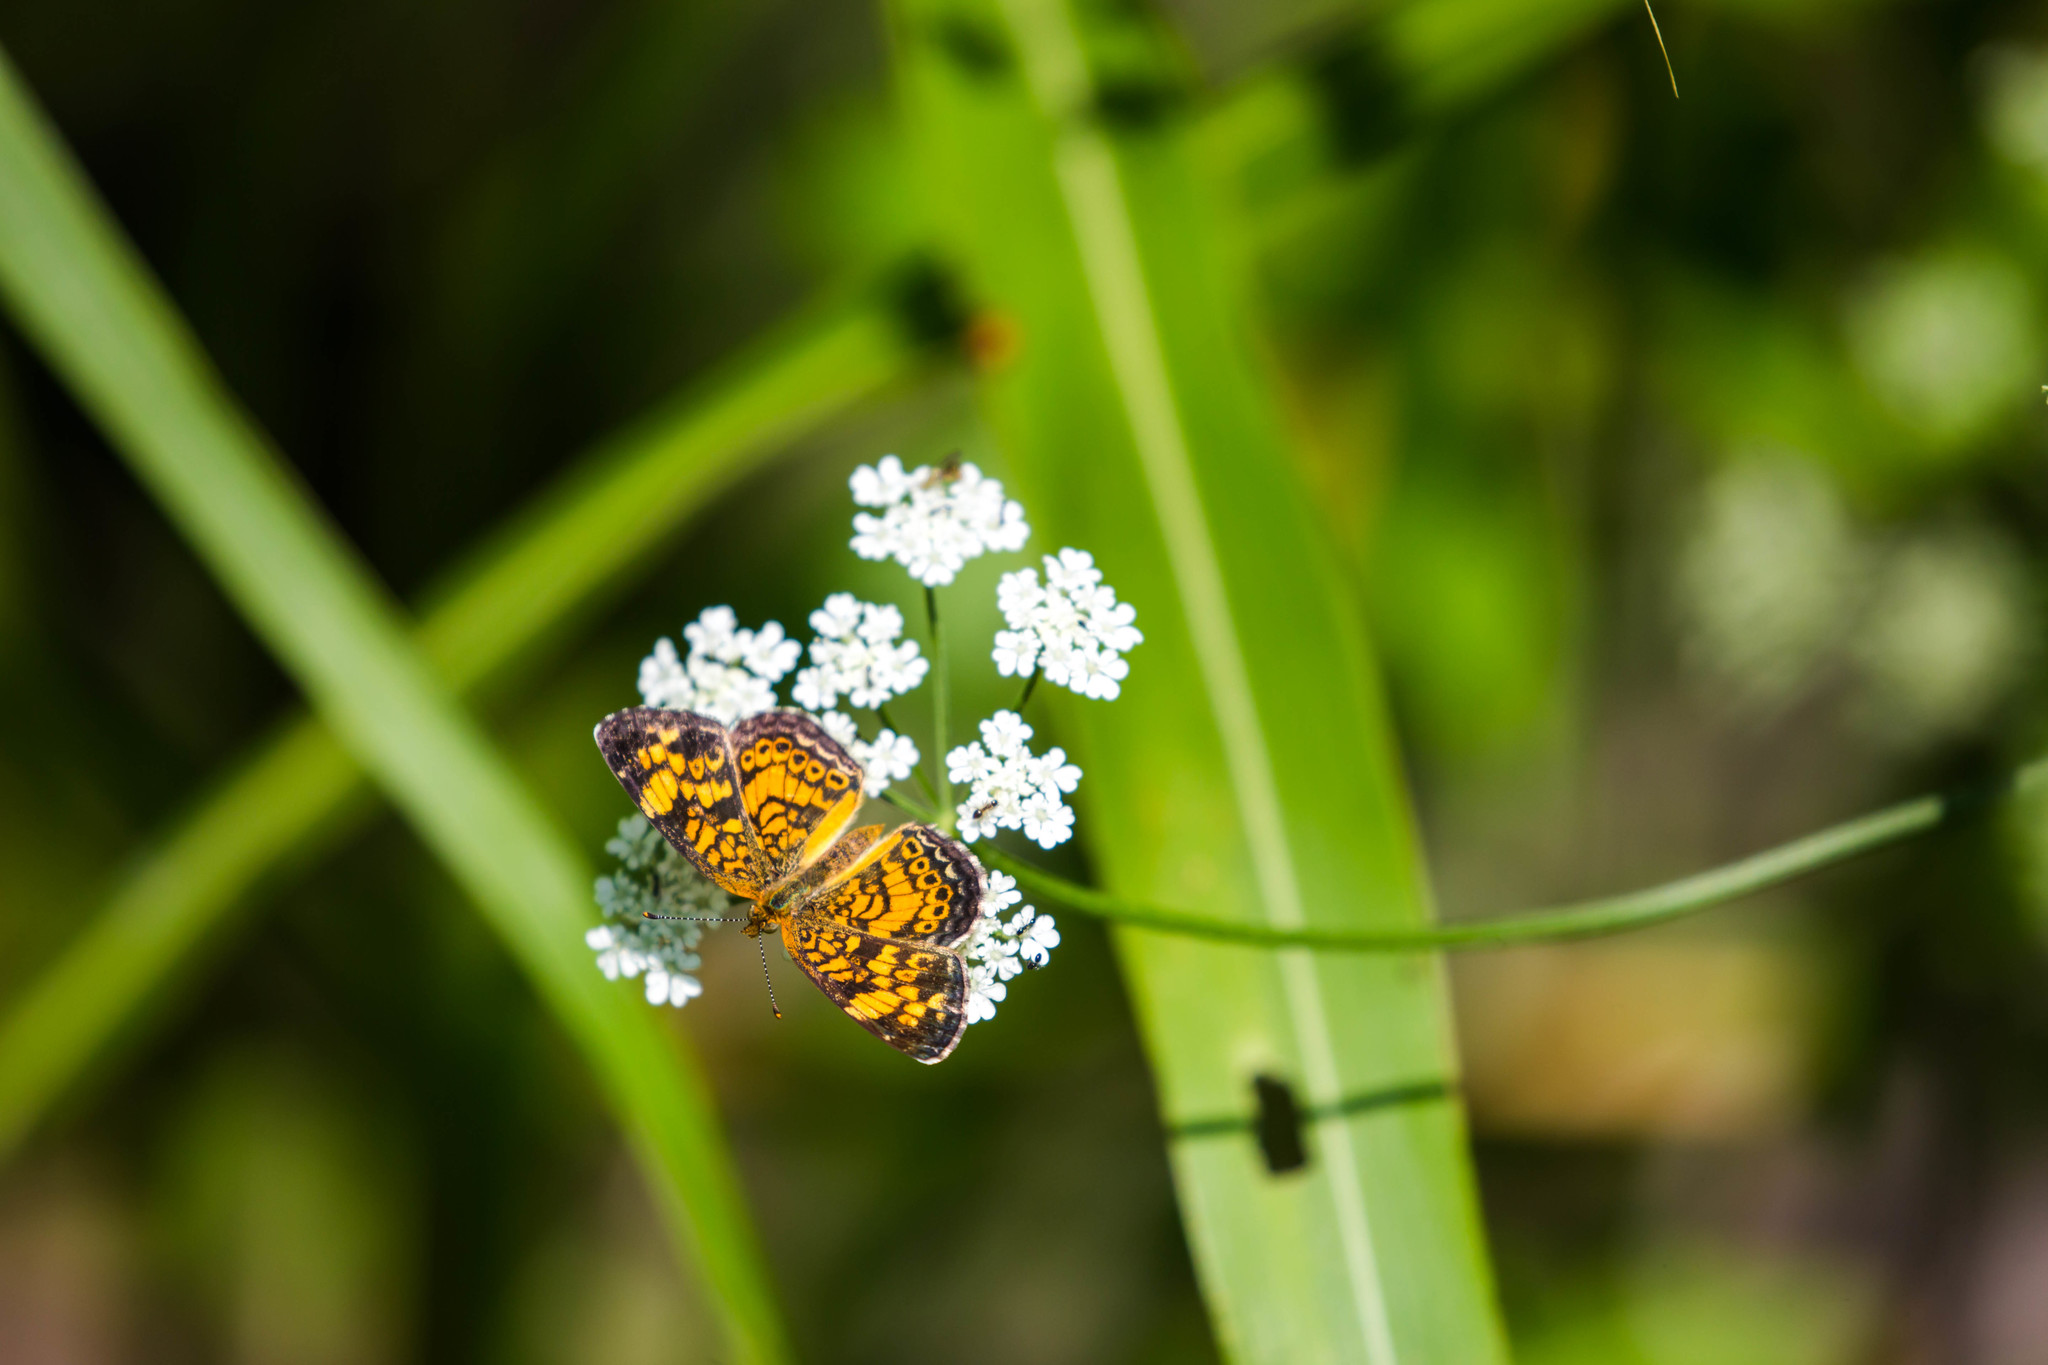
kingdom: Animalia
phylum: Arthropoda
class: Insecta
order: Lepidoptera
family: Nymphalidae
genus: Phyciodes
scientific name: Phyciodes tharos
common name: Pearl crescent
